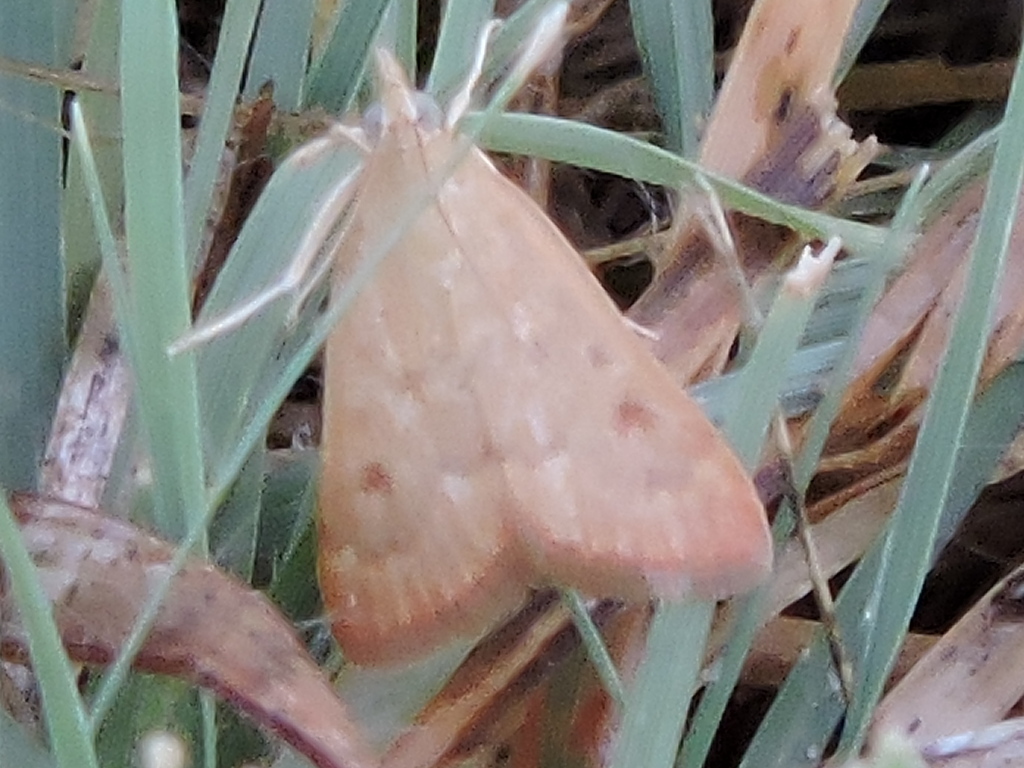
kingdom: Animalia
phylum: Arthropoda
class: Insecta
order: Lepidoptera
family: Crambidae
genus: Achyra
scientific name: Achyra rantalis
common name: Garden webworm
